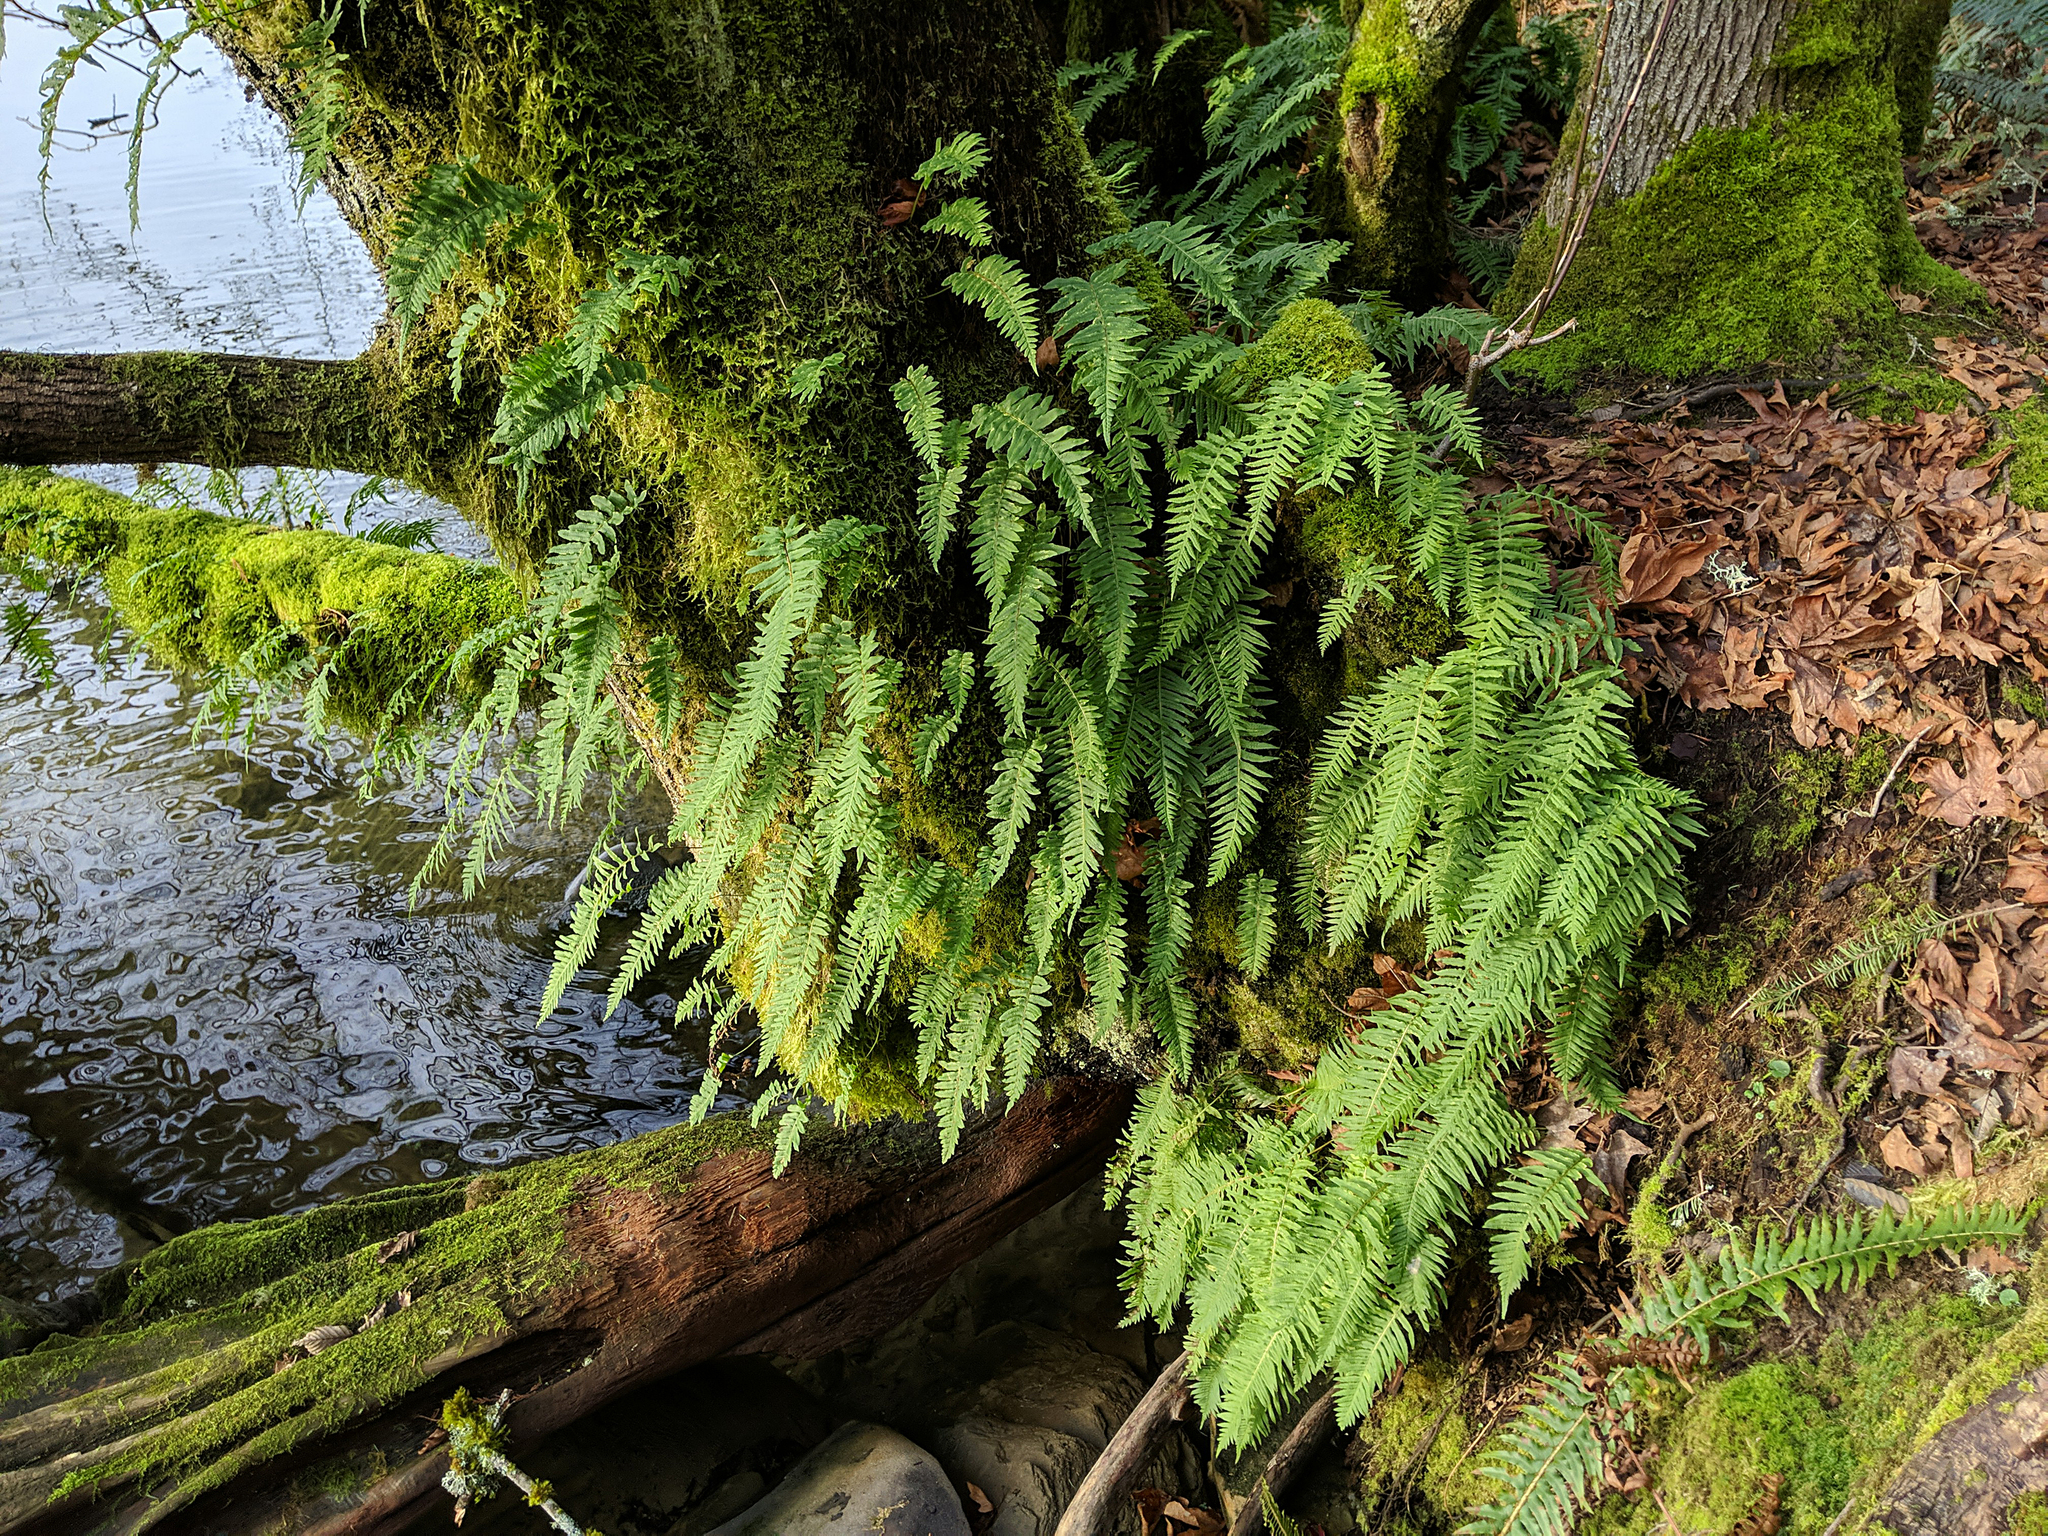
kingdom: Plantae
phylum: Tracheophyta
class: Polypodiopsida
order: Polypodiales
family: Polypodiaceae
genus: Polypodium
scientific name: Polypodium glycyrrhiza
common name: Licorice fern
